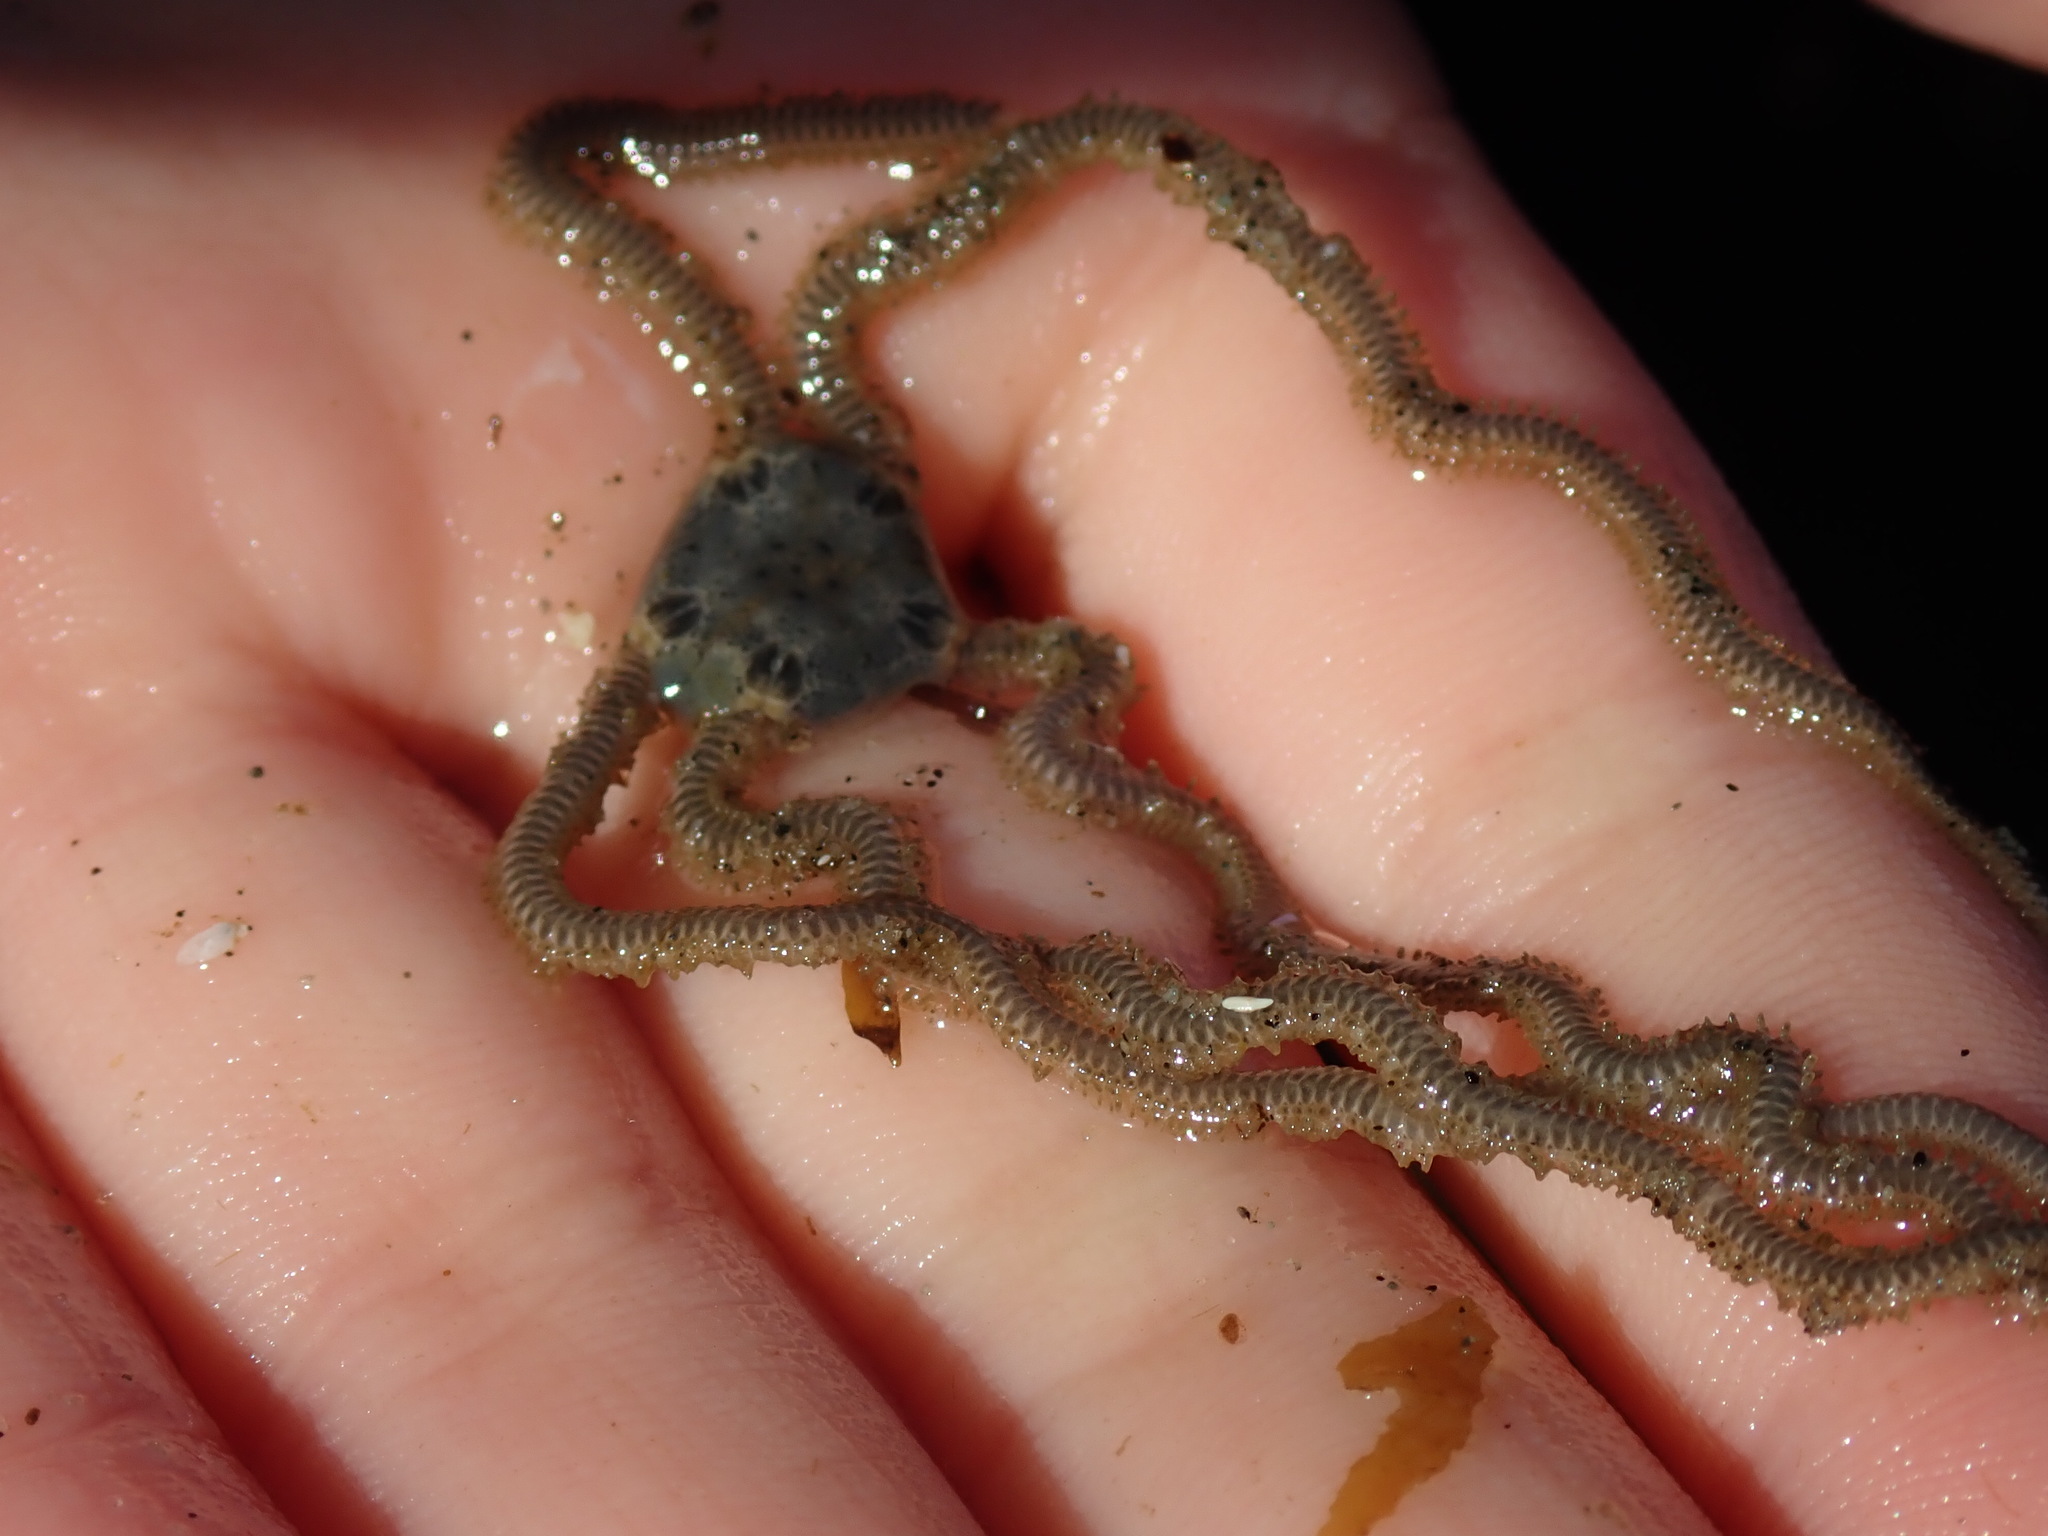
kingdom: Animalia
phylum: Echinodermata
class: Ophiuroidea
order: Amphilepidida
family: Amphiuridae
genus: Amphiodia
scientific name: Amphiodia occidentalis
